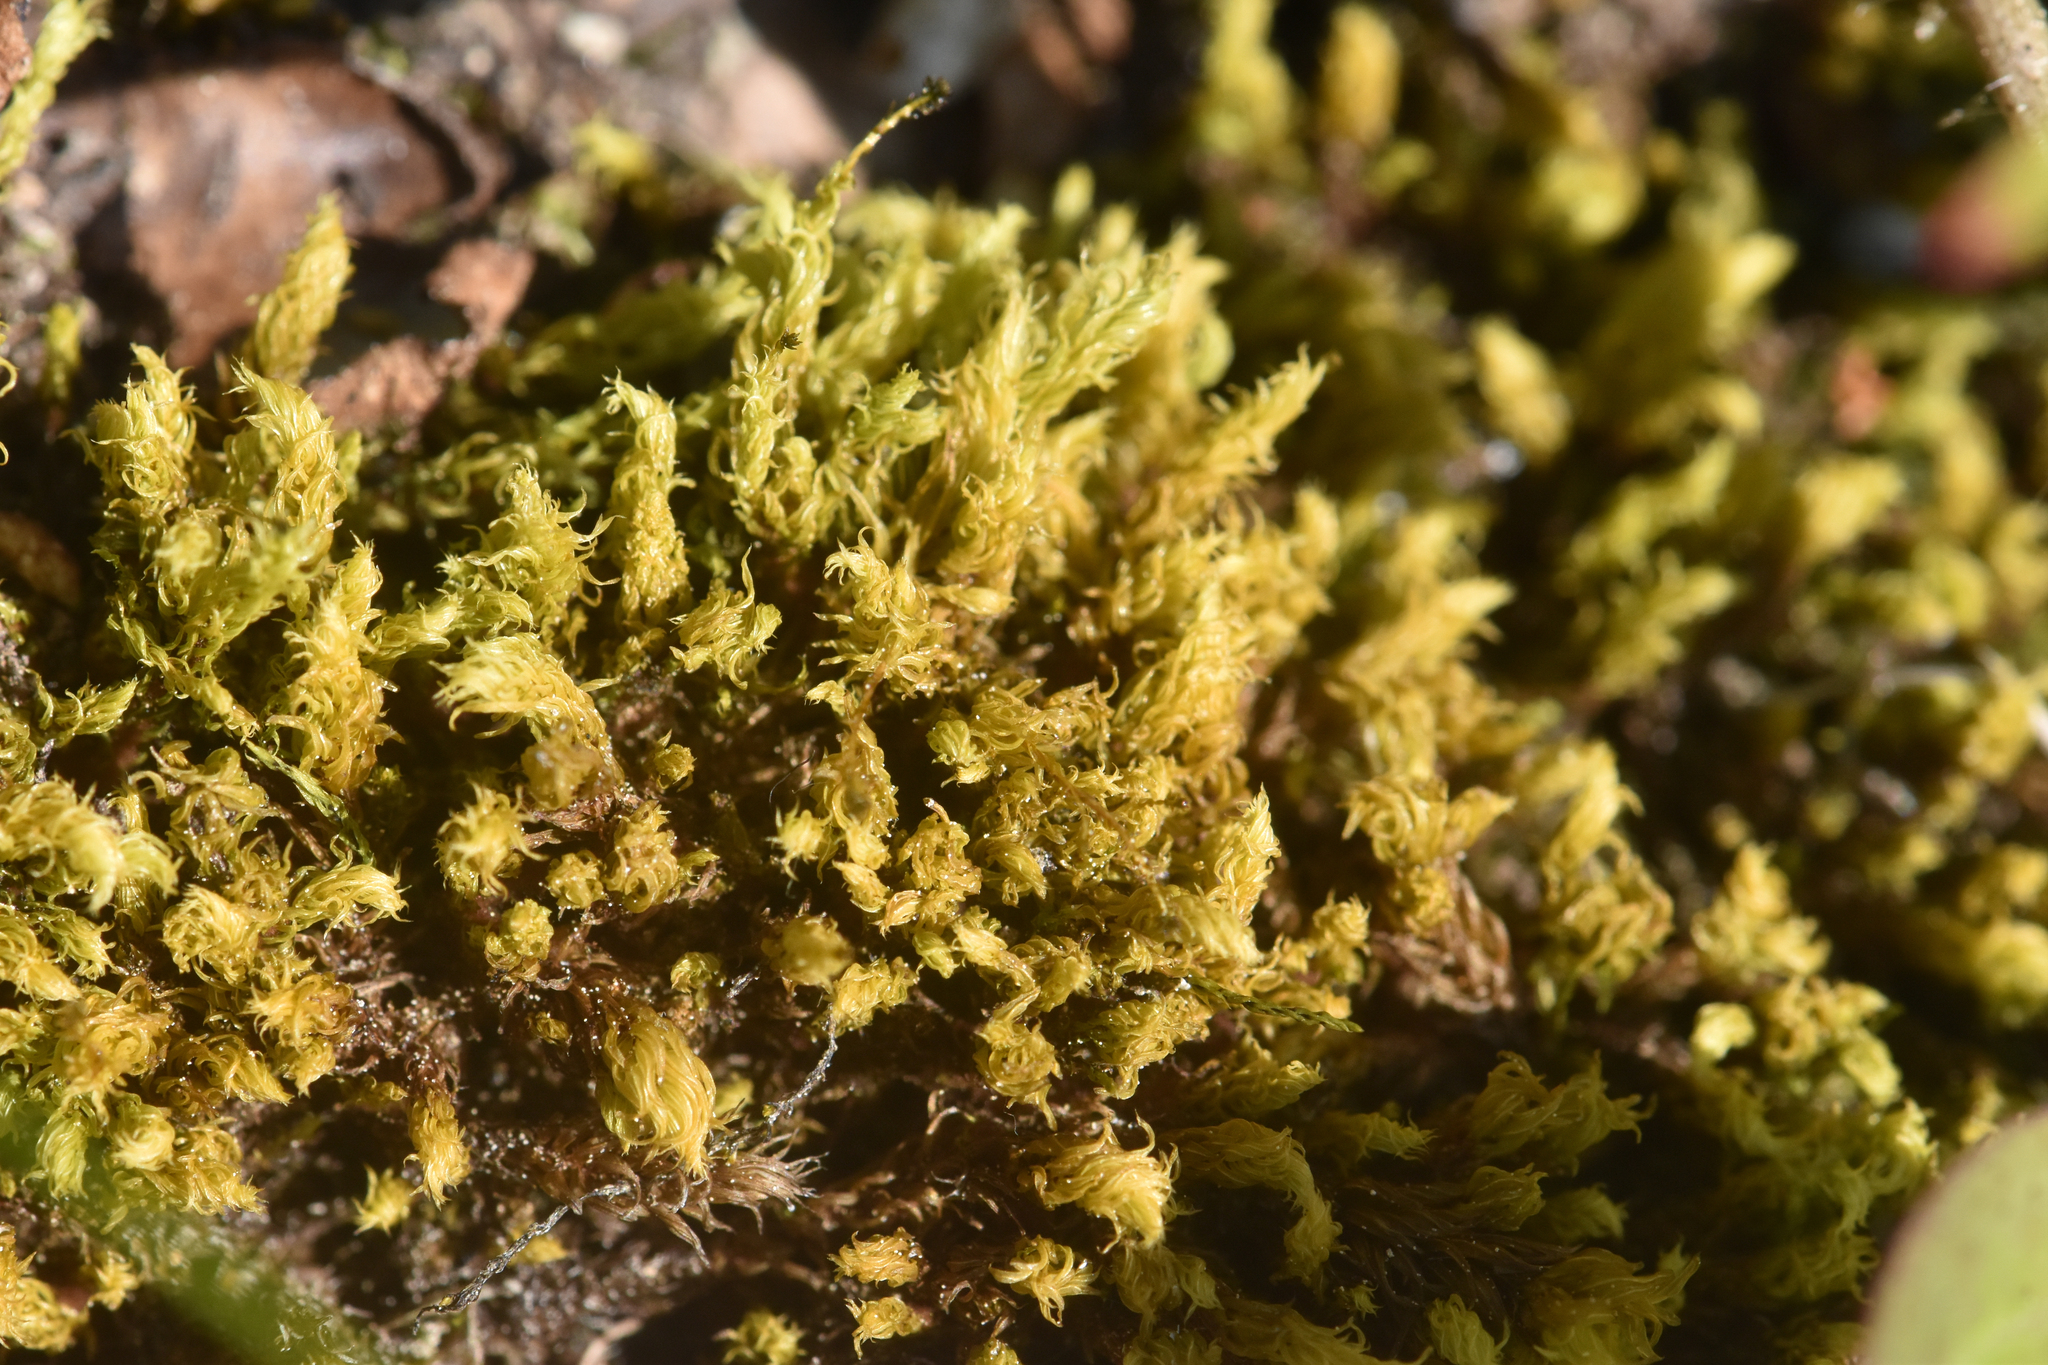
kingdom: Plantae
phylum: Bryophyta
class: Bryopsida
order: Aulacomniales
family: Aulacomniaceae
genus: Aulacomnium
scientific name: Aulacomnium palustre
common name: Bog groove-moss
